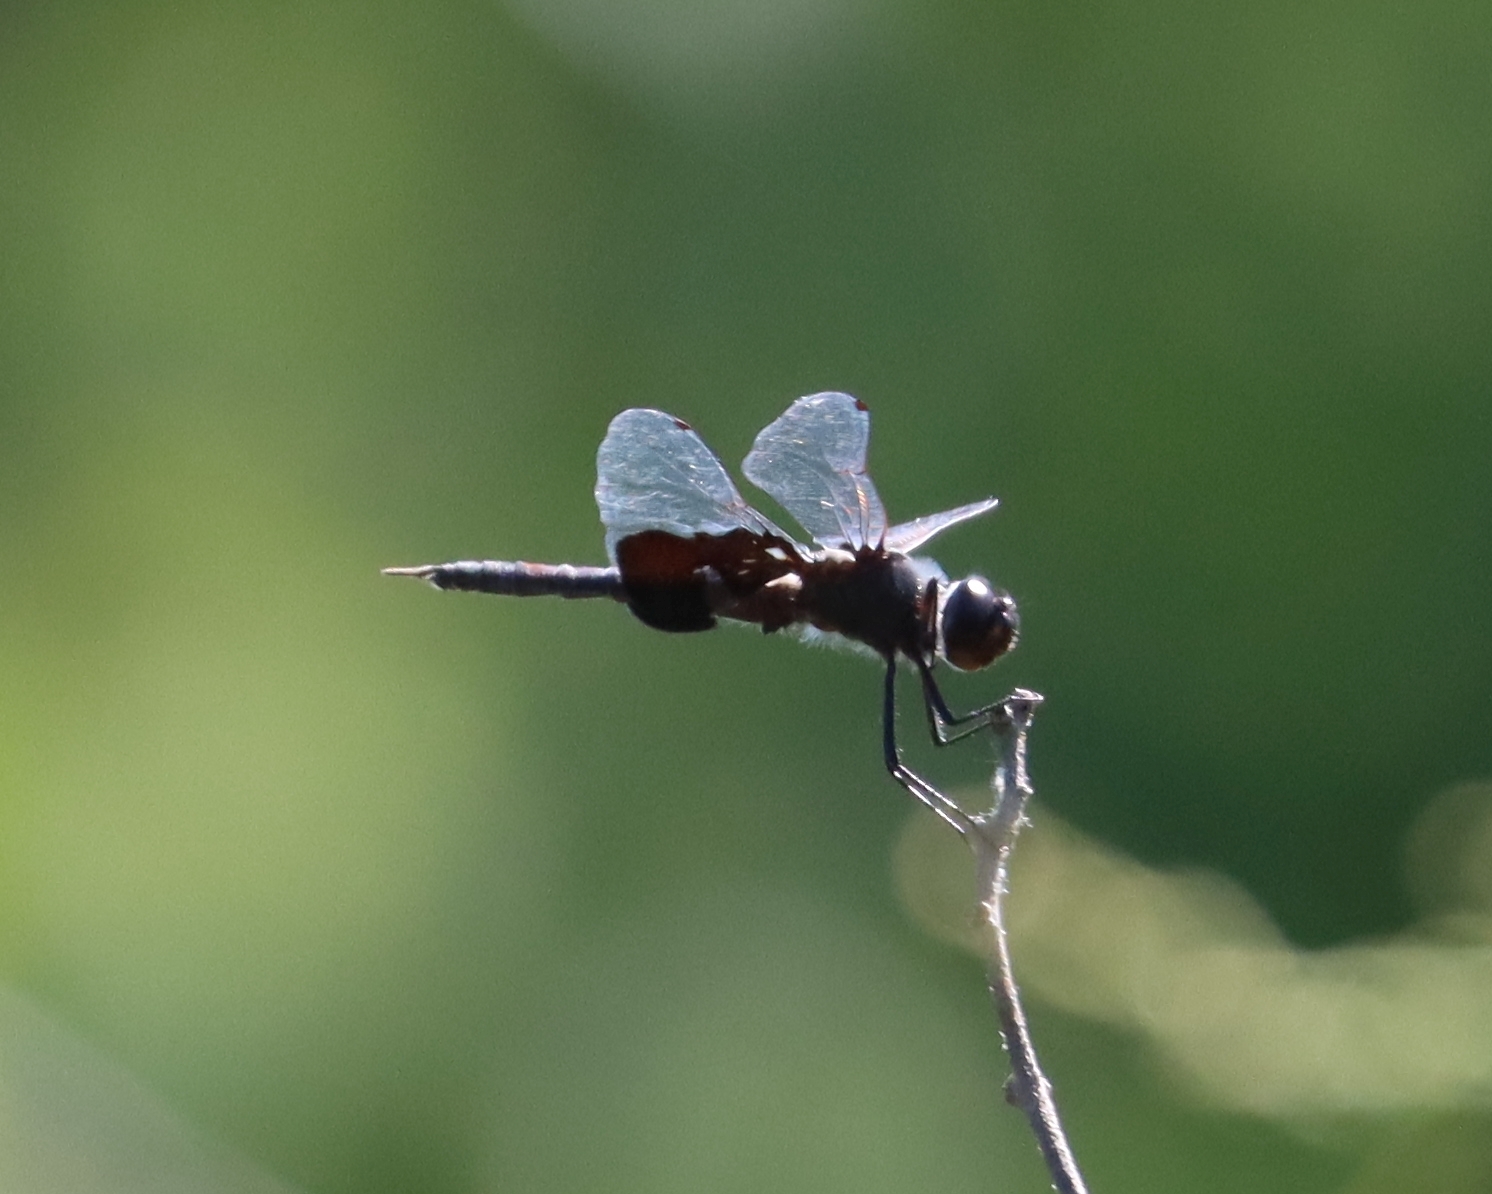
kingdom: Animalia
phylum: Arthropoda
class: Insecta
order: Odonata
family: Libellulidae
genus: Tramea
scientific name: Tramea lacerata
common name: Black saddlebags
